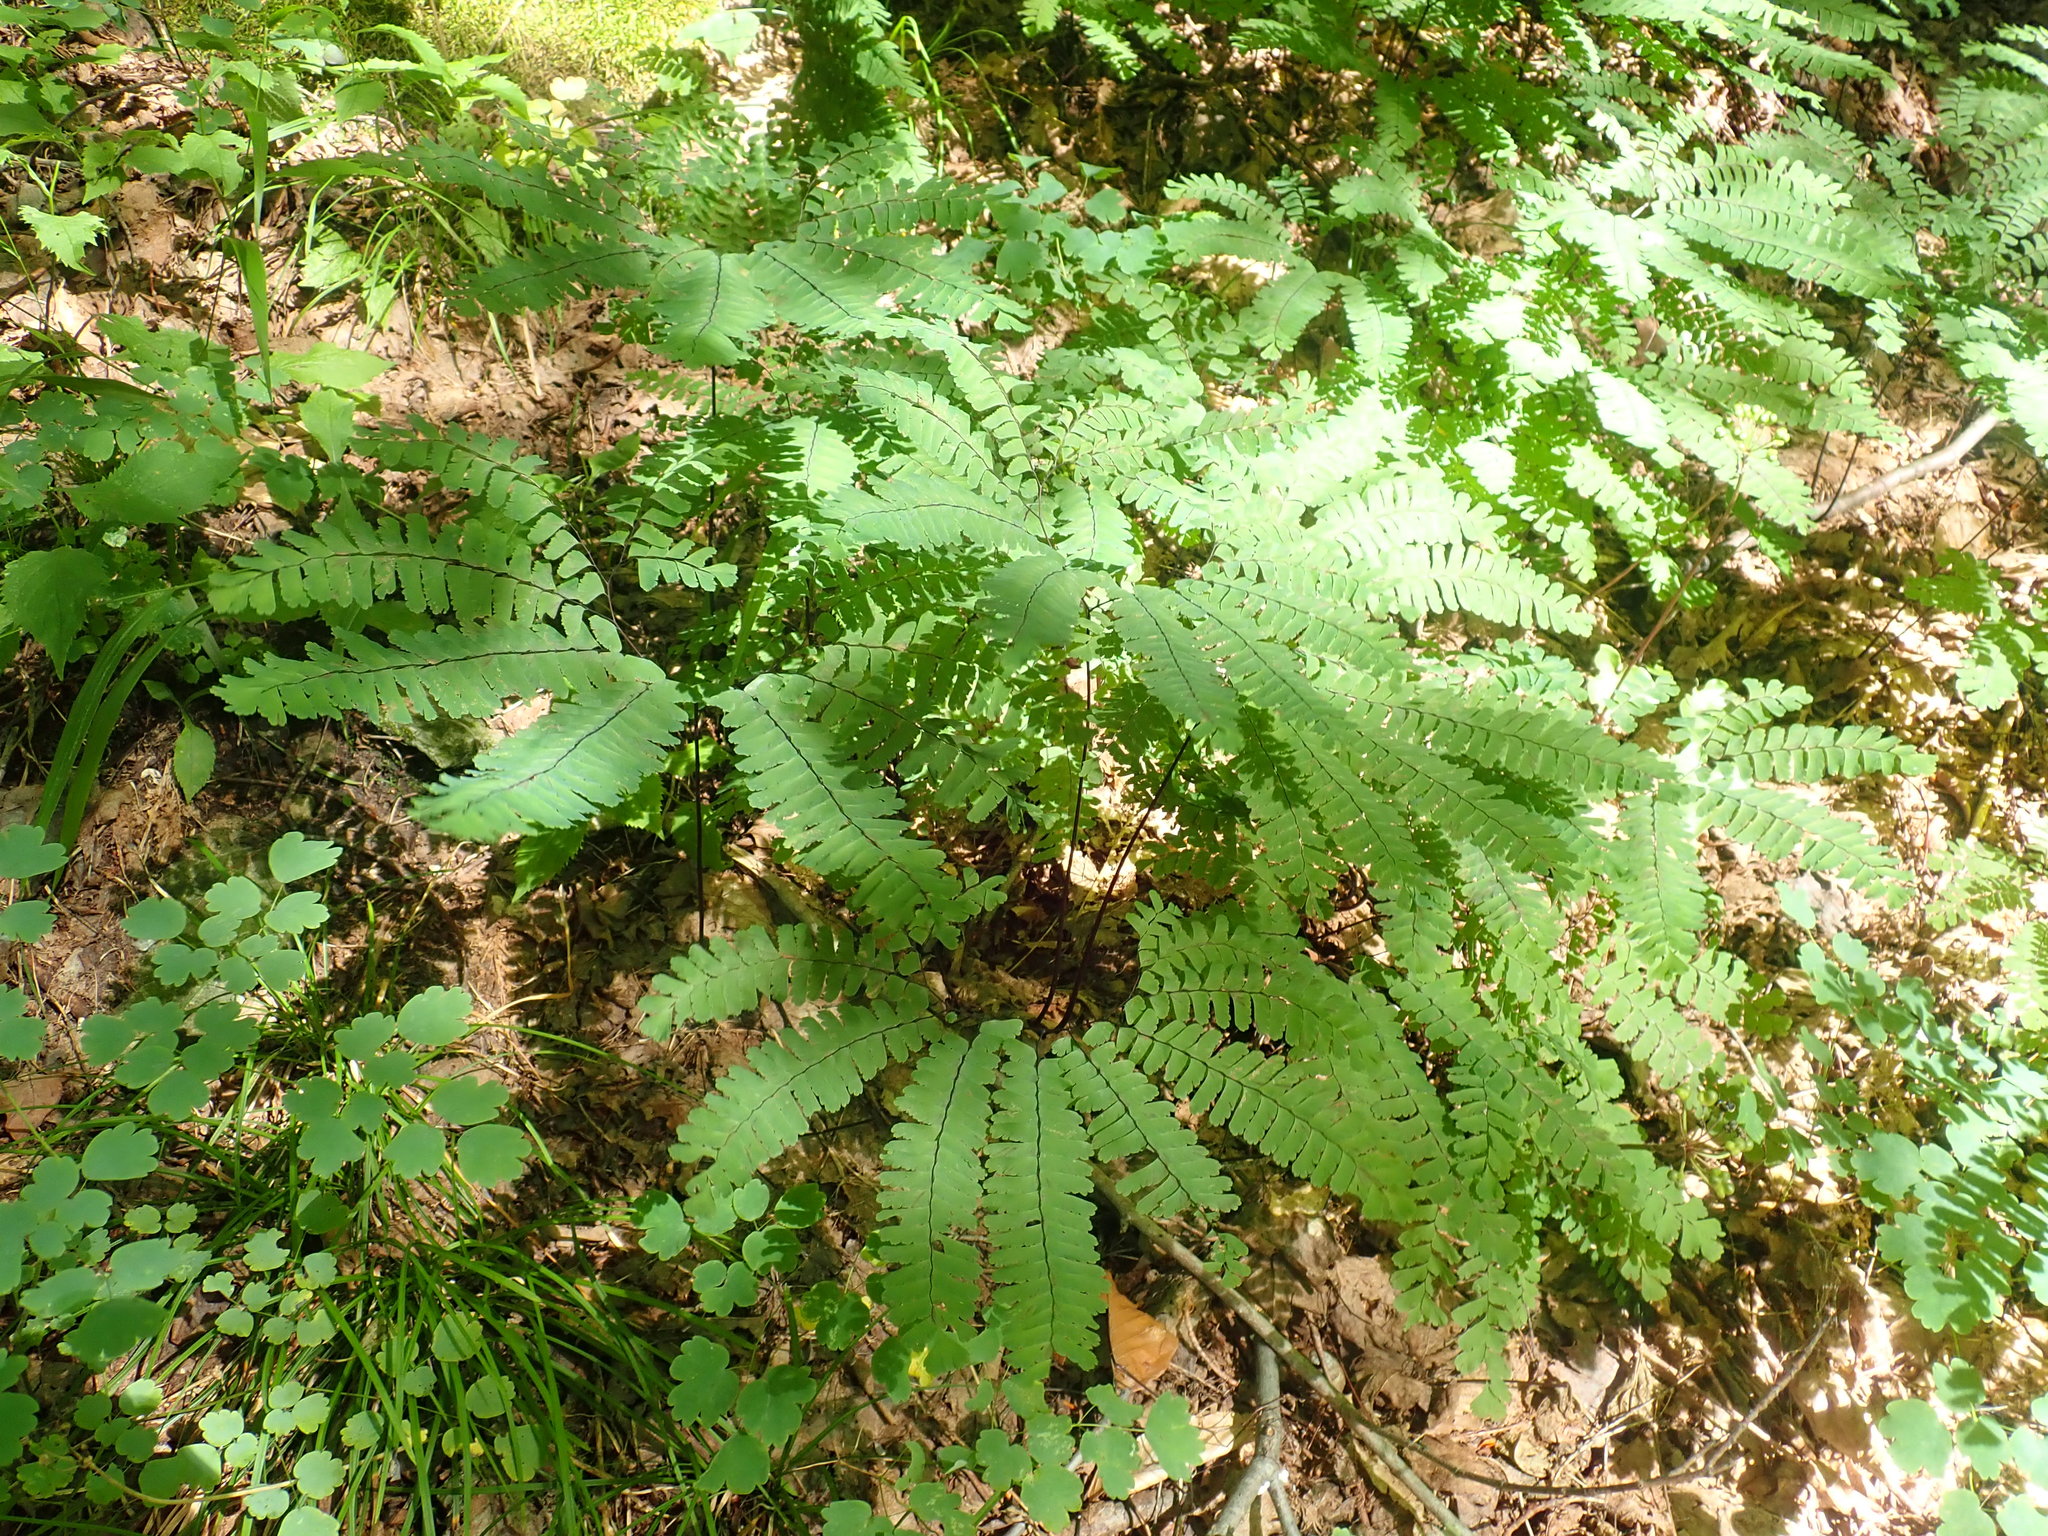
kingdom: Plantae
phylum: Tracheophyta
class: Polypodiopsida
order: Polypodiales
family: Pteridaceae
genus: Adiantum
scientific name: Adiantum pedatum
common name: Five-finger fern
